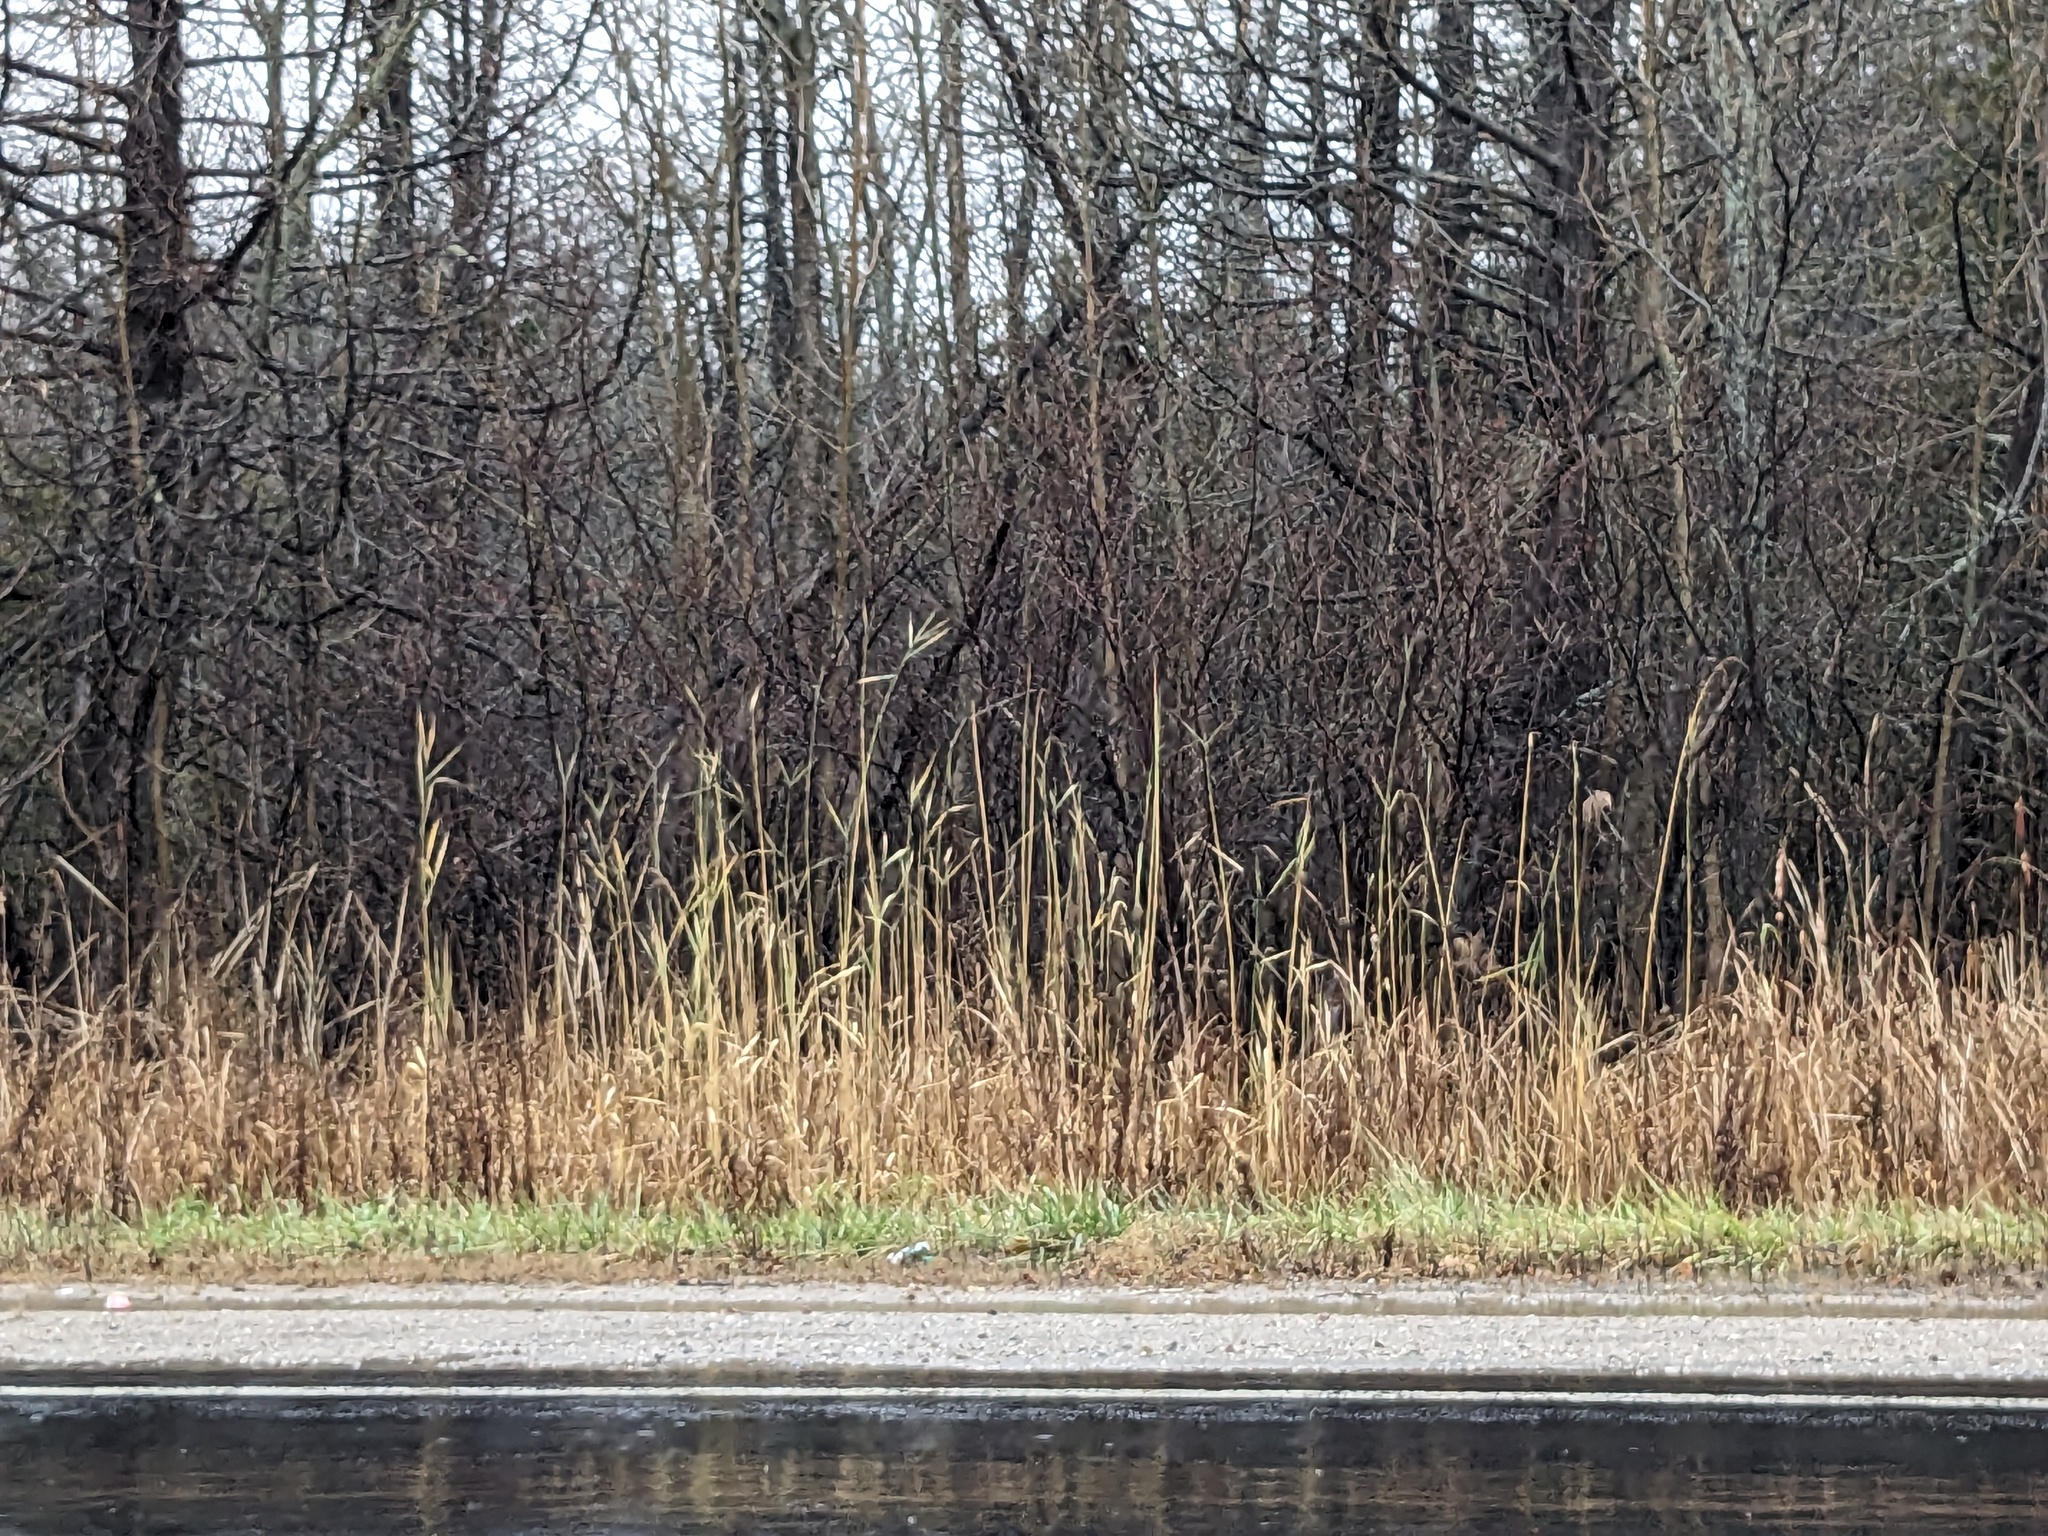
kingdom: Plantae
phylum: Tracheophyta
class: Liliopsida
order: Poales
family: Poaceae
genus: Phragmites
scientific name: Phragmites australis
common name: Common reed
